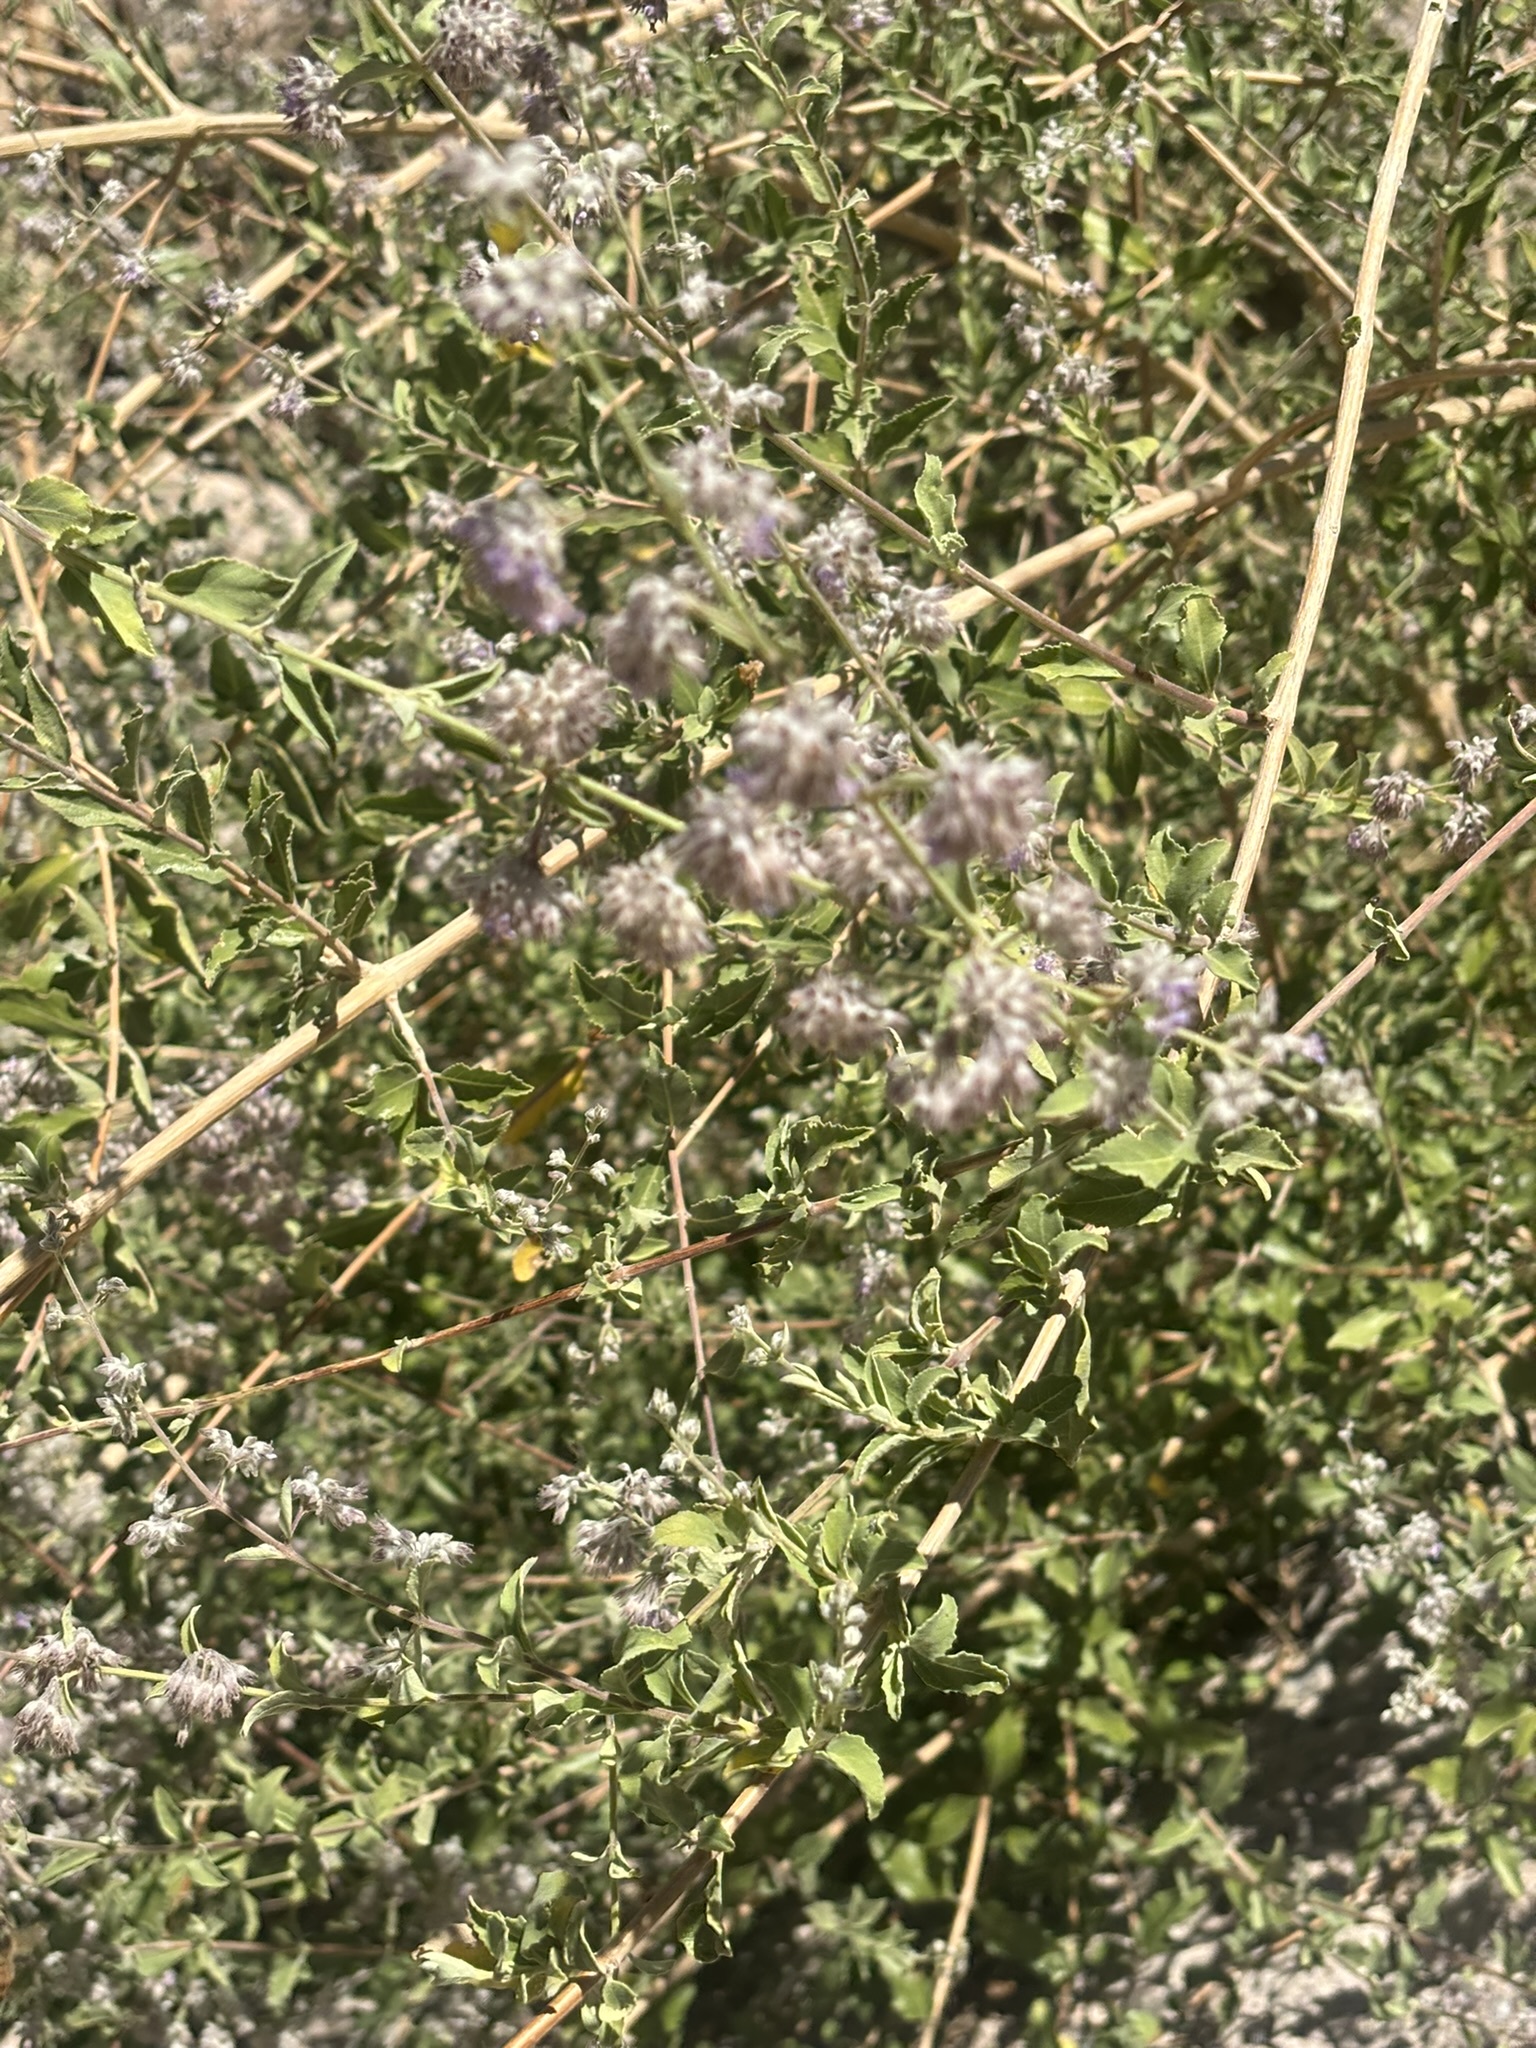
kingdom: Plantae
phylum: Tracheophyta
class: Magnoliopsida
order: Lamiales
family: Lamiaceae
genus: Condea
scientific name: Condea emoryi
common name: Chia
